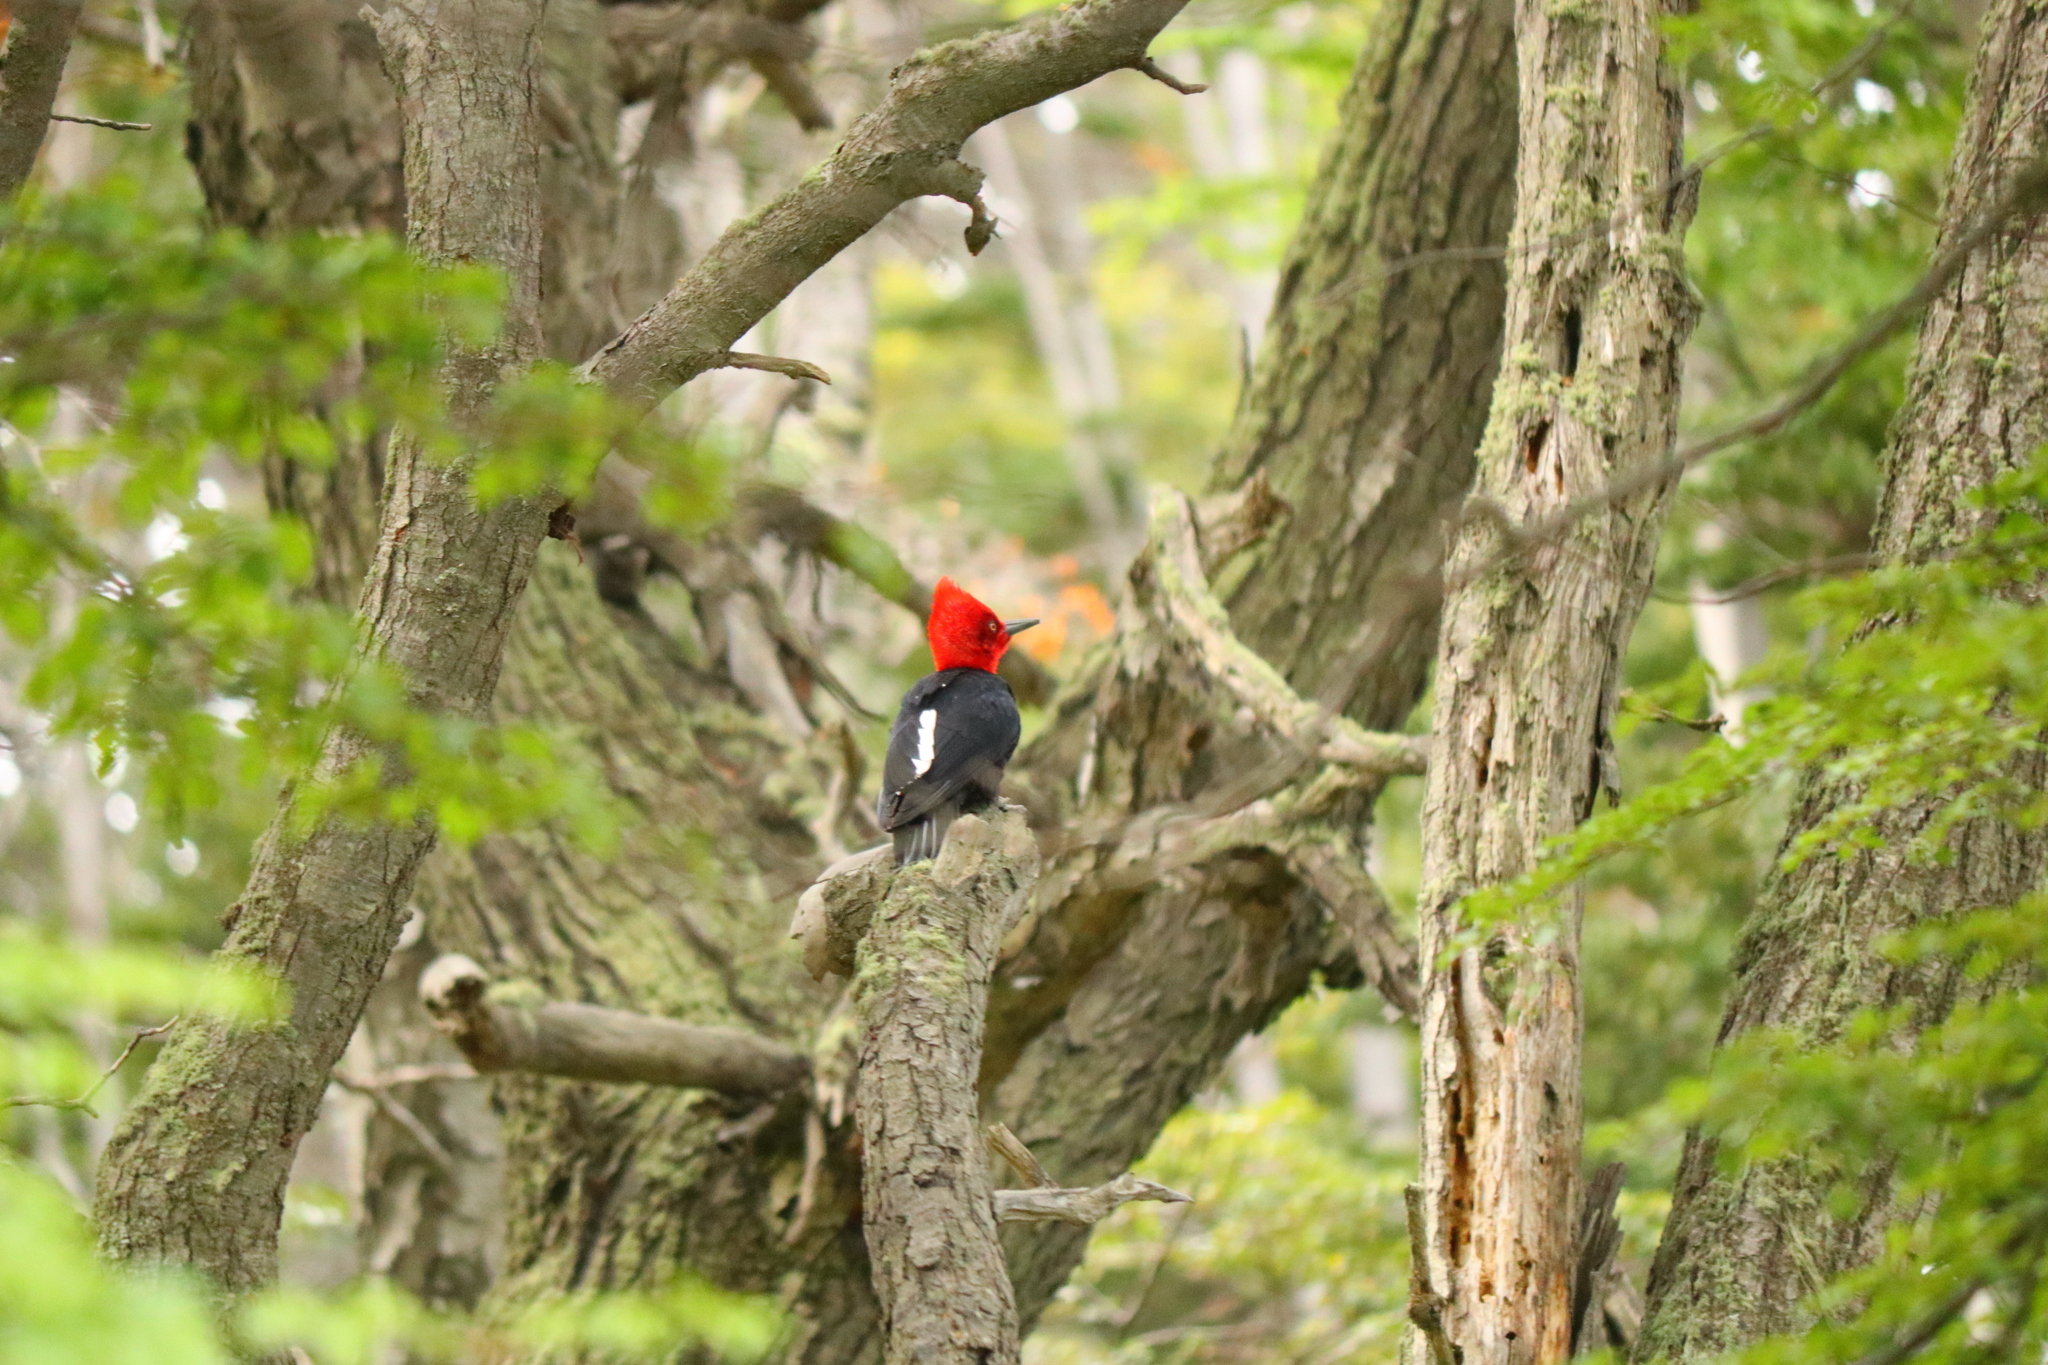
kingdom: Animalia
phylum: Chordata
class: Aves
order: Piciformes
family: Picidae
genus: Campephilus
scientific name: Campephilus magellanicus
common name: Magellanic woodpecker
